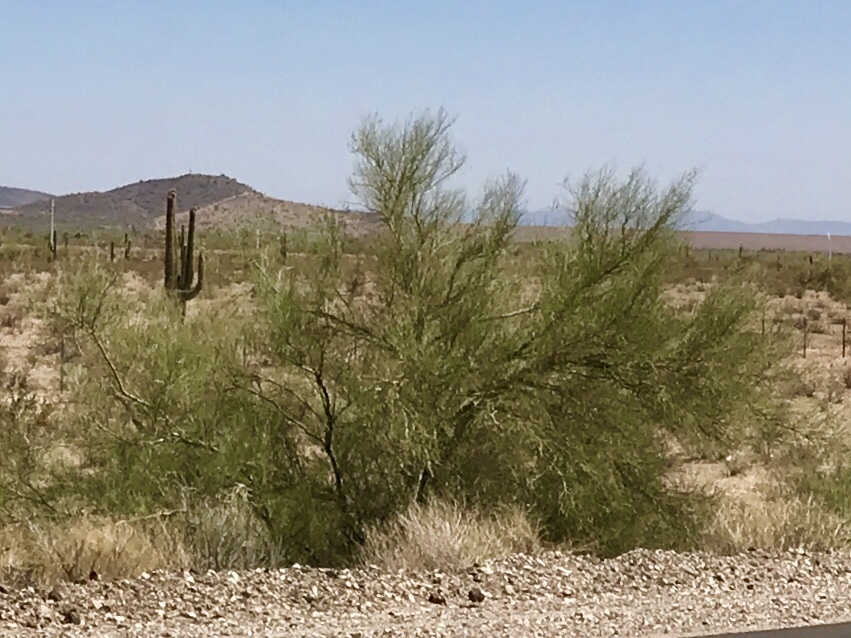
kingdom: Plantae
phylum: Tracheophyta
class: Magnoliopsida
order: Fabales
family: Fabaceae
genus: Parkinsonia
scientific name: Parkinsonia florida
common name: Blue paloverde
